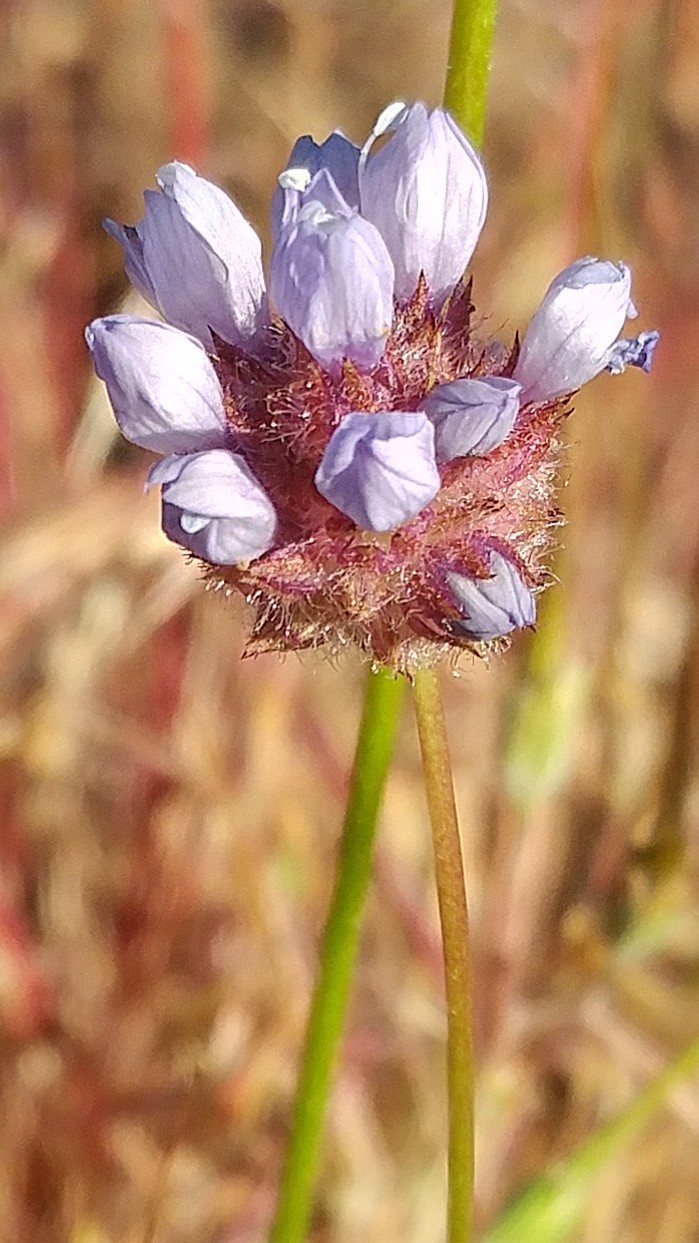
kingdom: Plantae
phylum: Tracheophyta
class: Magnoliopsida
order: Ericales
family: Polemoniaceae
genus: Gilia
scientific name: Gilia capitata
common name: Bluehead gilia
